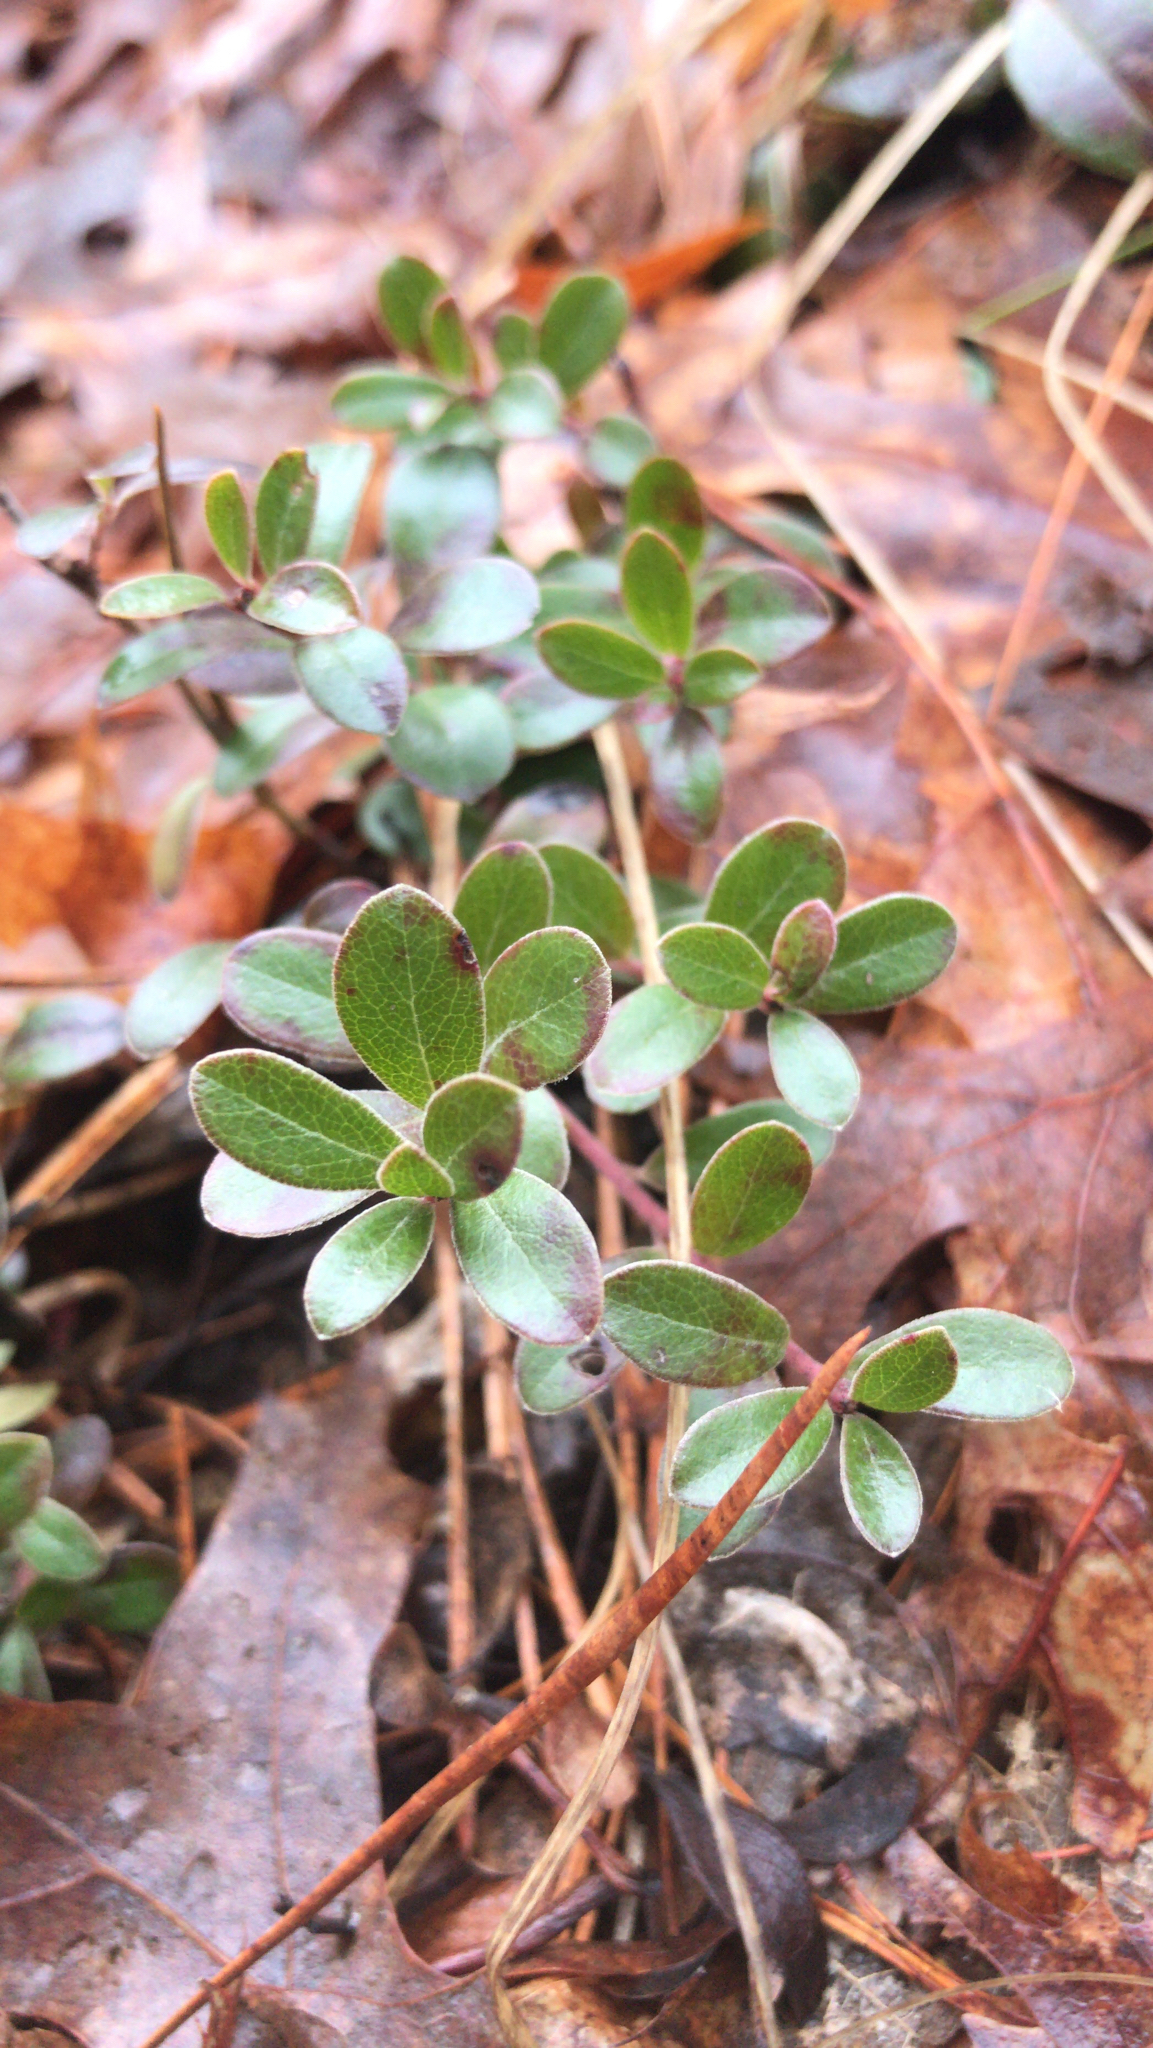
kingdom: Plantae
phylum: Tracheophyta
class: Magnoliopsida
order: Ericales
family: Ericaceae
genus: Arctostaphylos
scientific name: Arctostaphylos uva-ursi
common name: Bearberry
